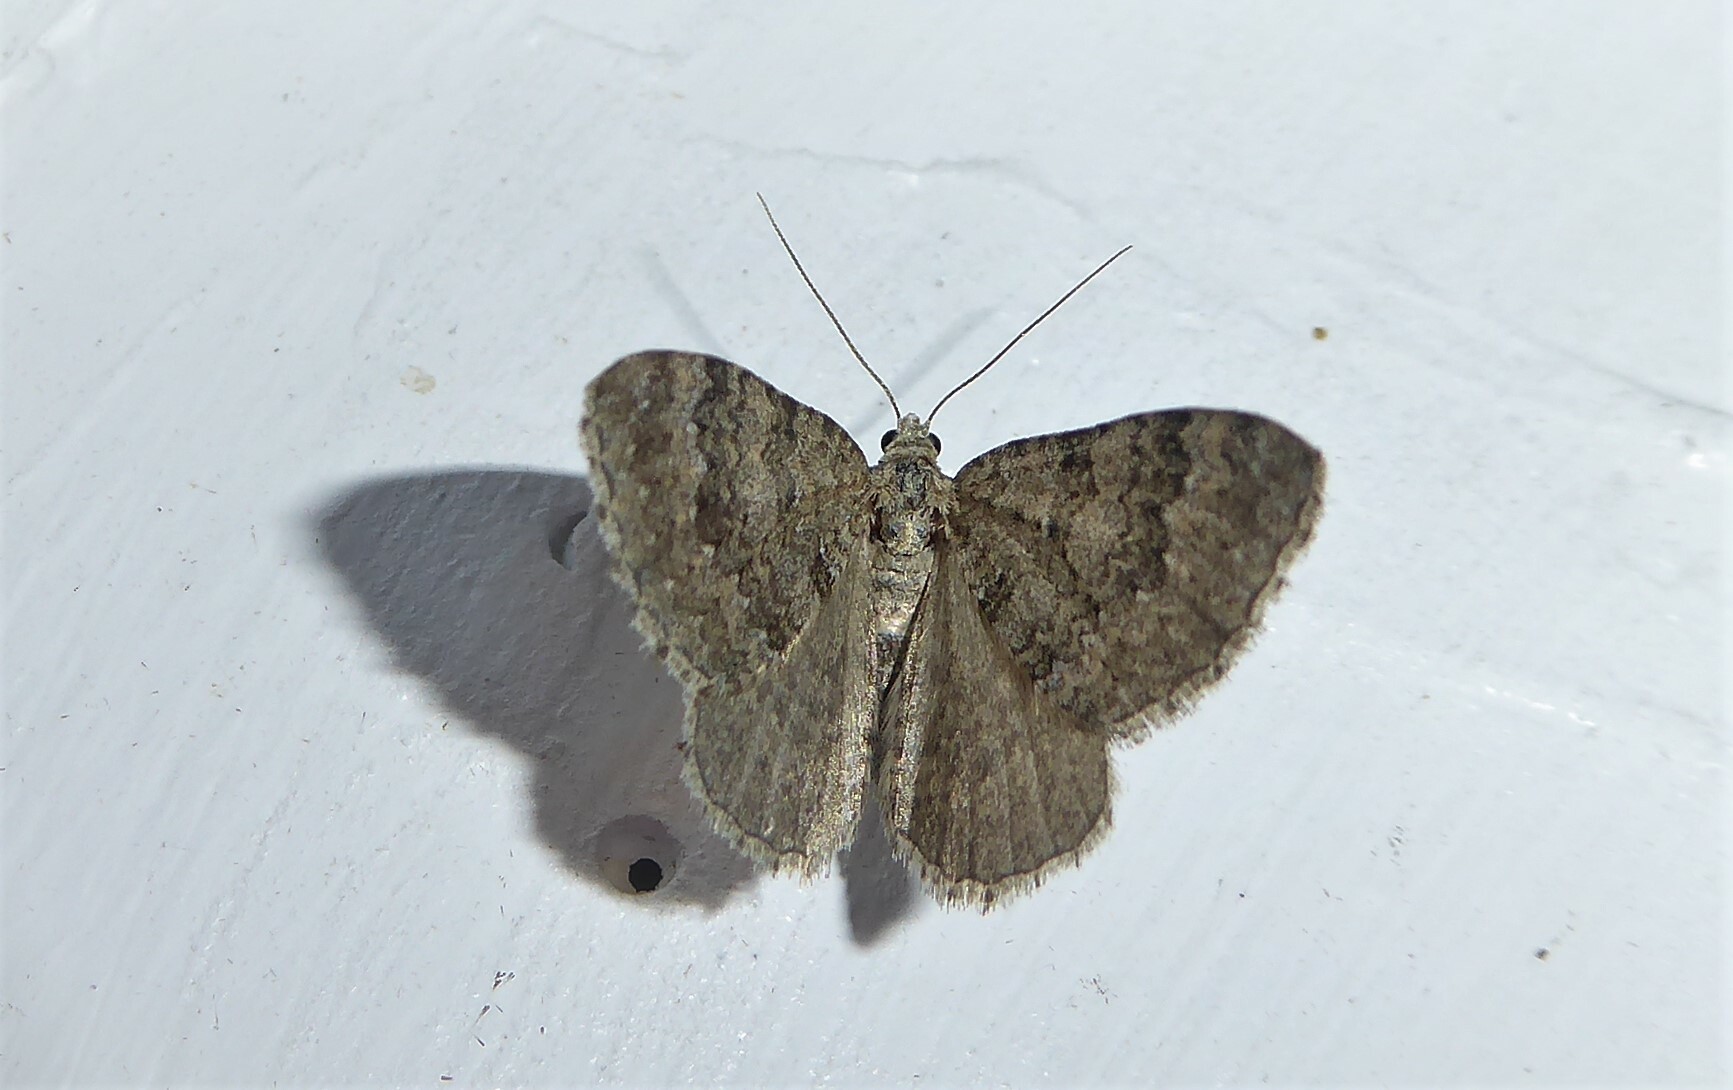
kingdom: Animalia
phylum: Arthropoda
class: Insecta
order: Lepidoptera
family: Geometridae
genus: Helastia
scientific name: Helastia corcularia
